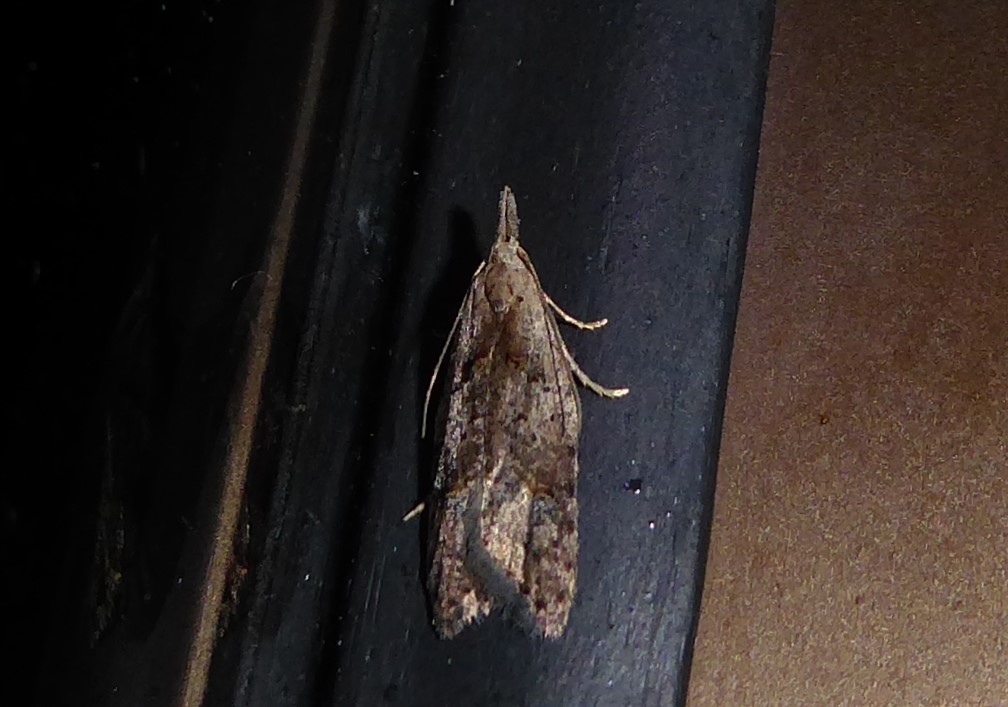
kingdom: Animalia
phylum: Arthropoda
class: Insecta
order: Lepidoptera
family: Carposinidae
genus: Carposina
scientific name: Carposina rubophaga
